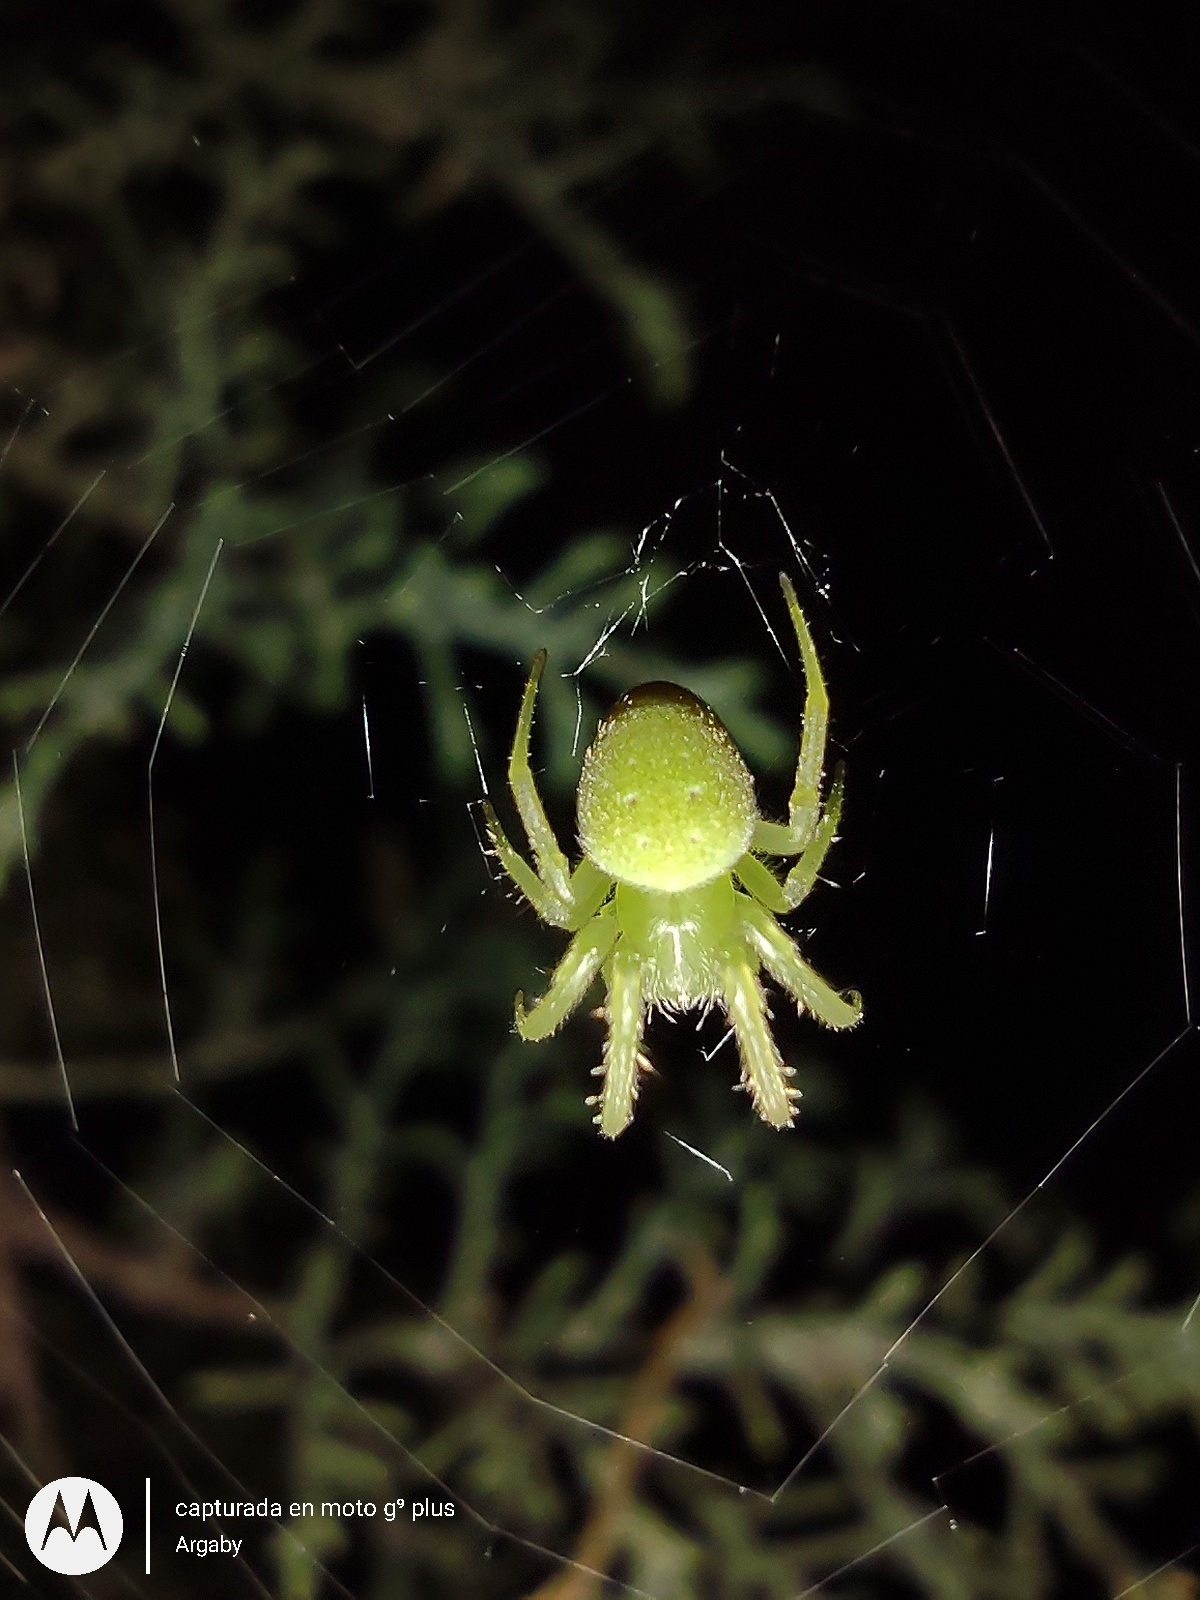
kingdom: Animalia
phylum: Arthropoda
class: Arachnida
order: Araneae
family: Araneidae
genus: Araneus
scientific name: Araneus uniformis
